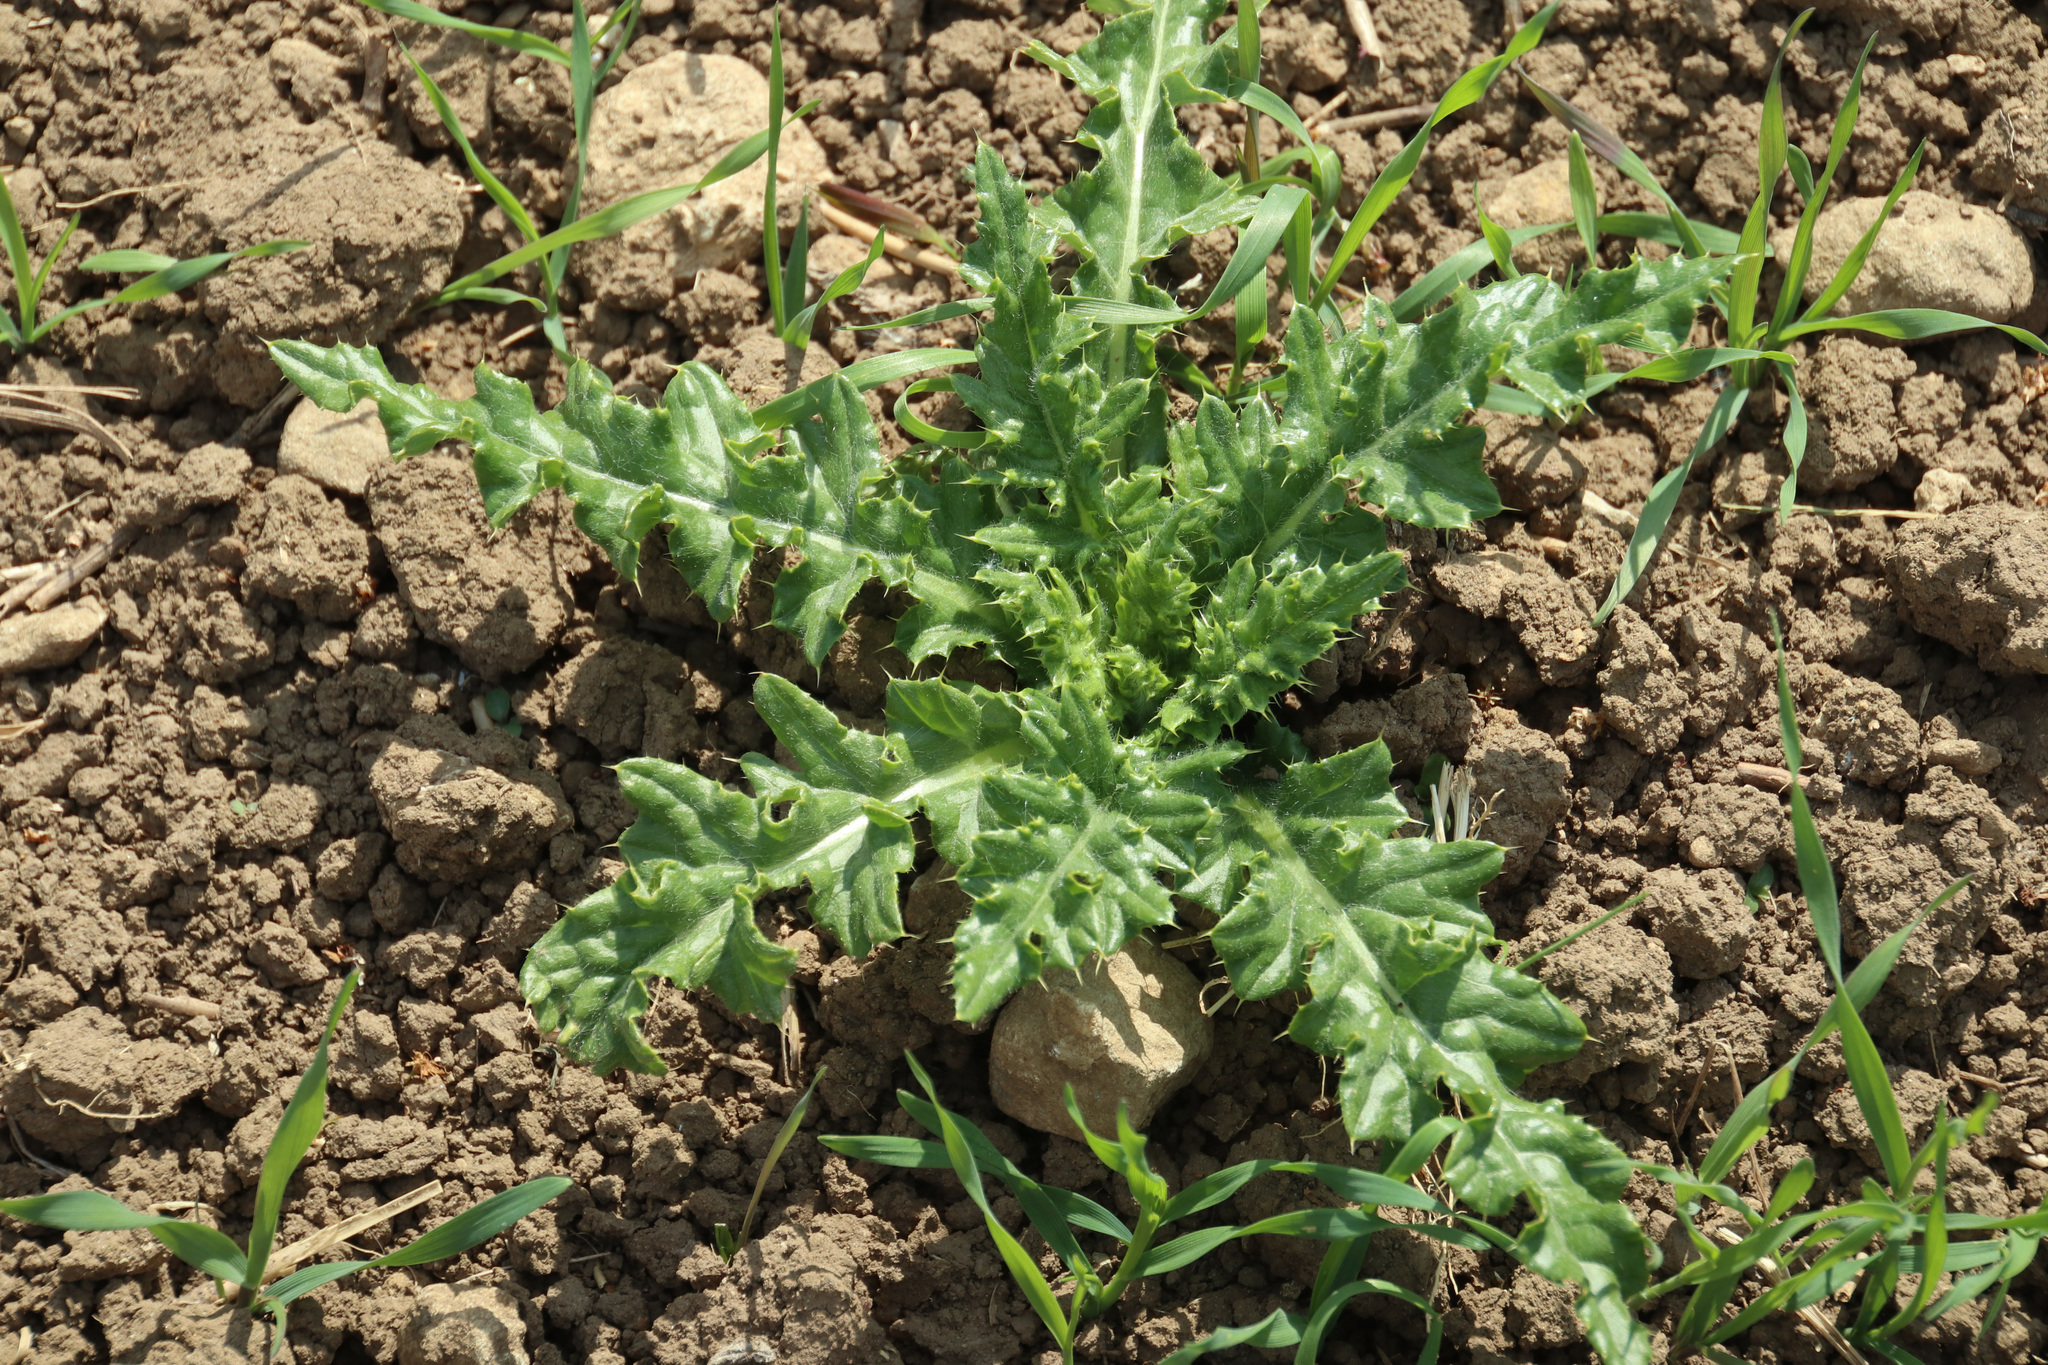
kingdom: Plantae
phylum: Tracheophyta
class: Magnoliopsida
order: Asterales
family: Asteraceae
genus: Cirsium
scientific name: Cirsium arvense
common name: Creeping thistle
